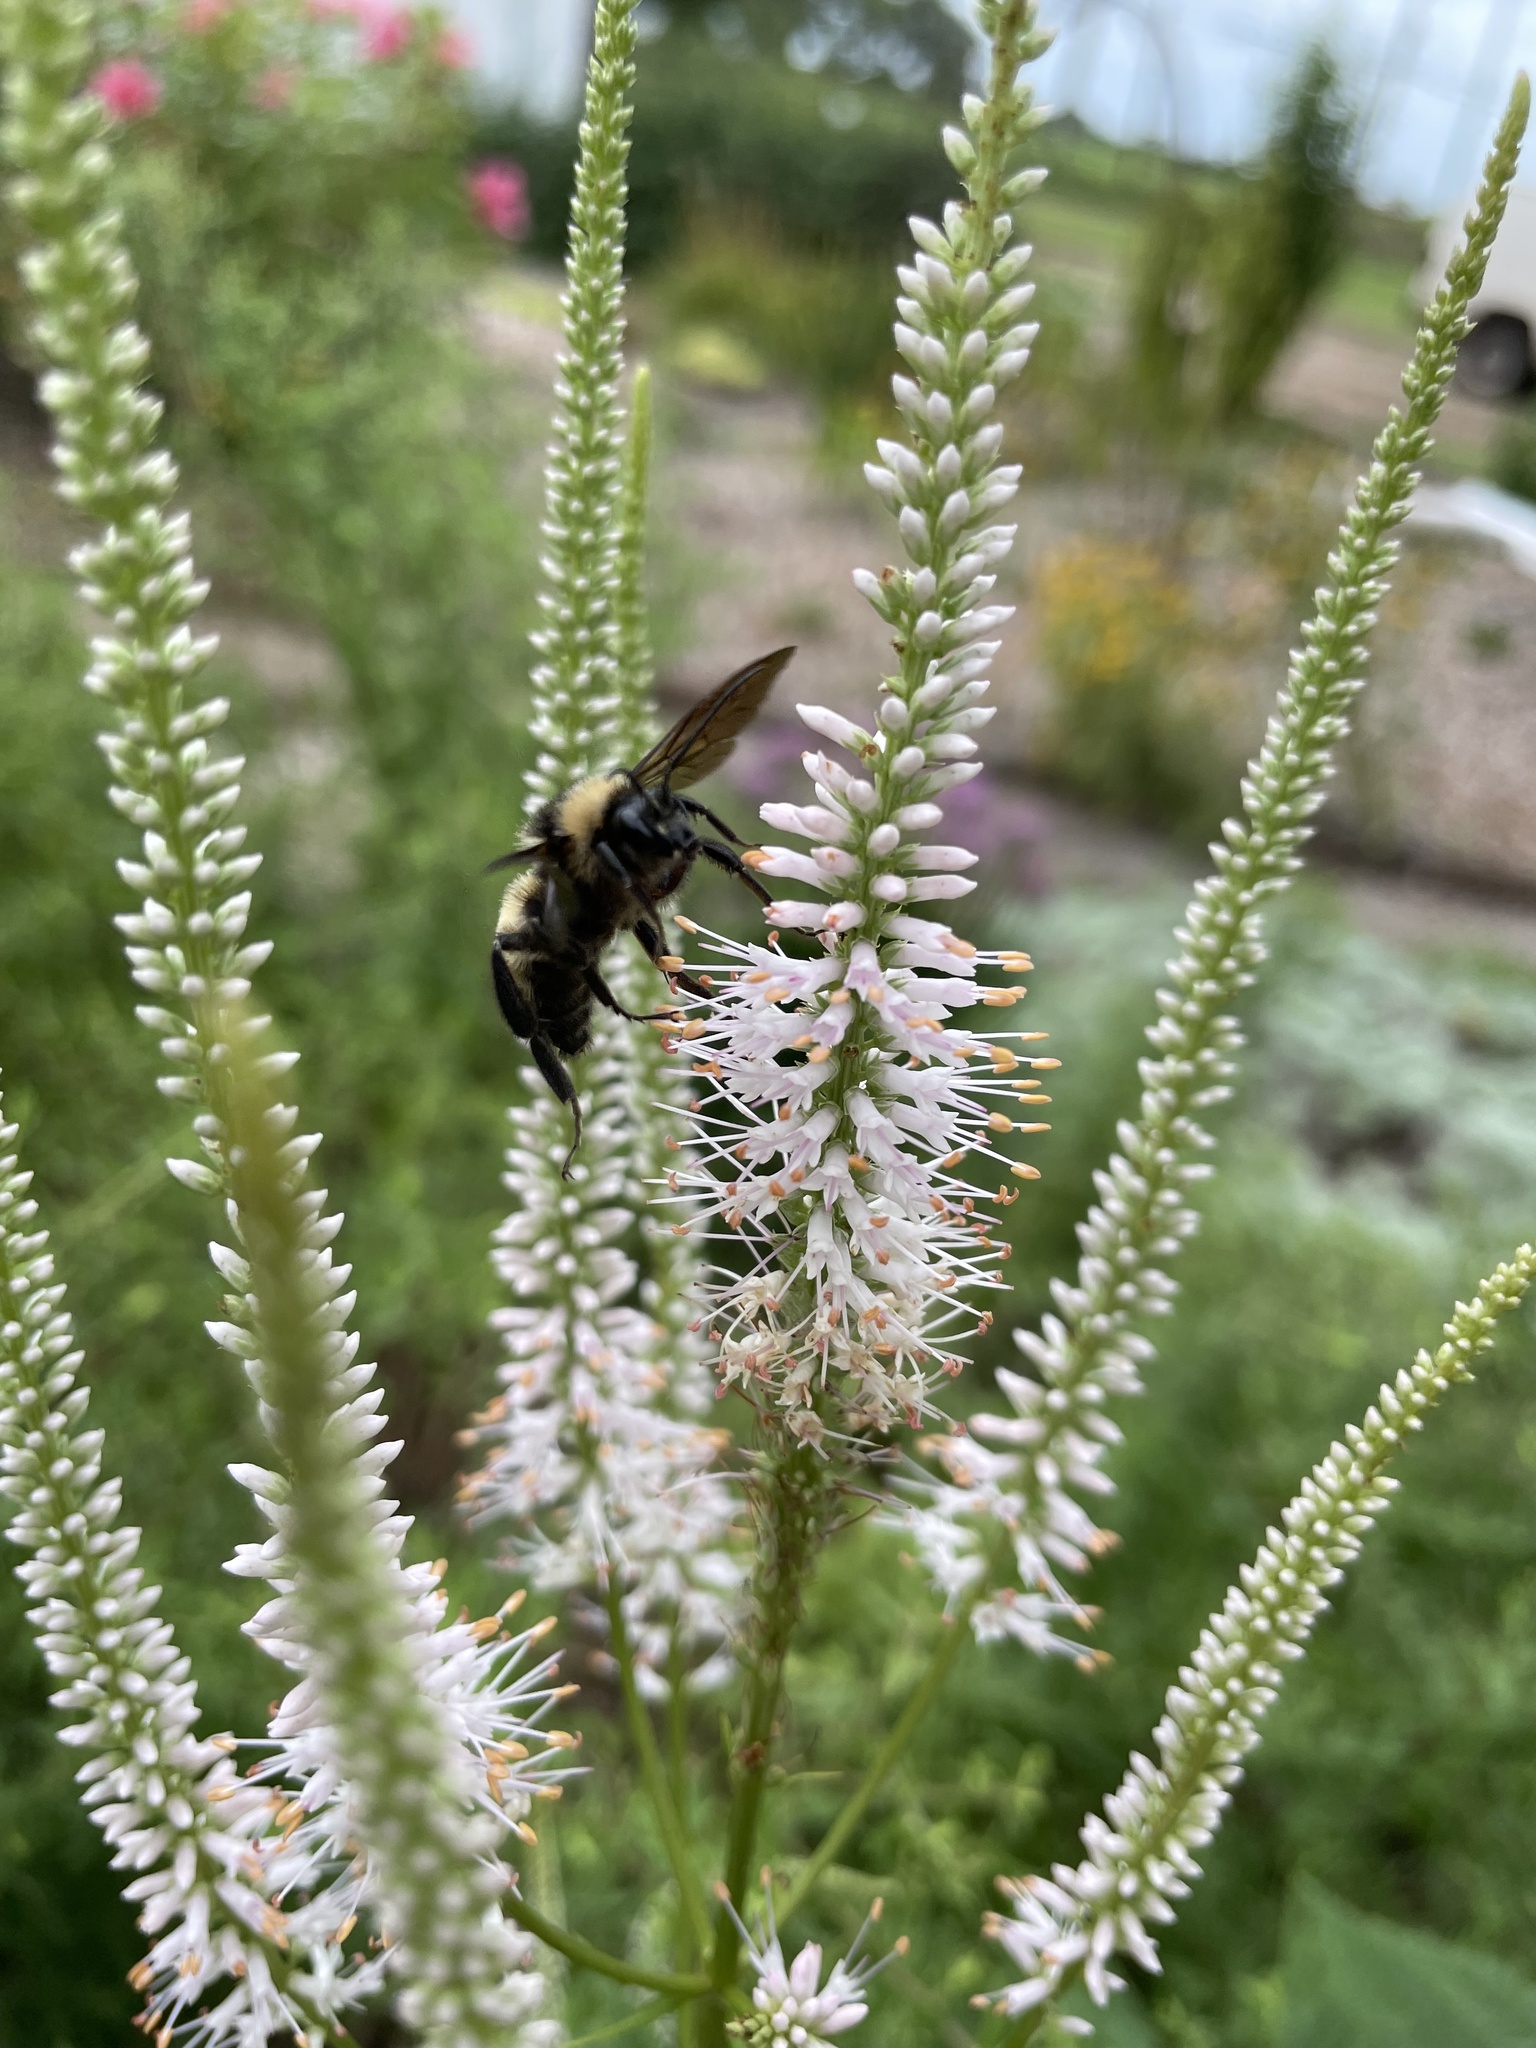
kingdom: Animalia
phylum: Arthropoda
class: Insecta
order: Hymenoptera
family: Apidae
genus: Bombus
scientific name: Bombus pensylvanicus
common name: Bumble bee
